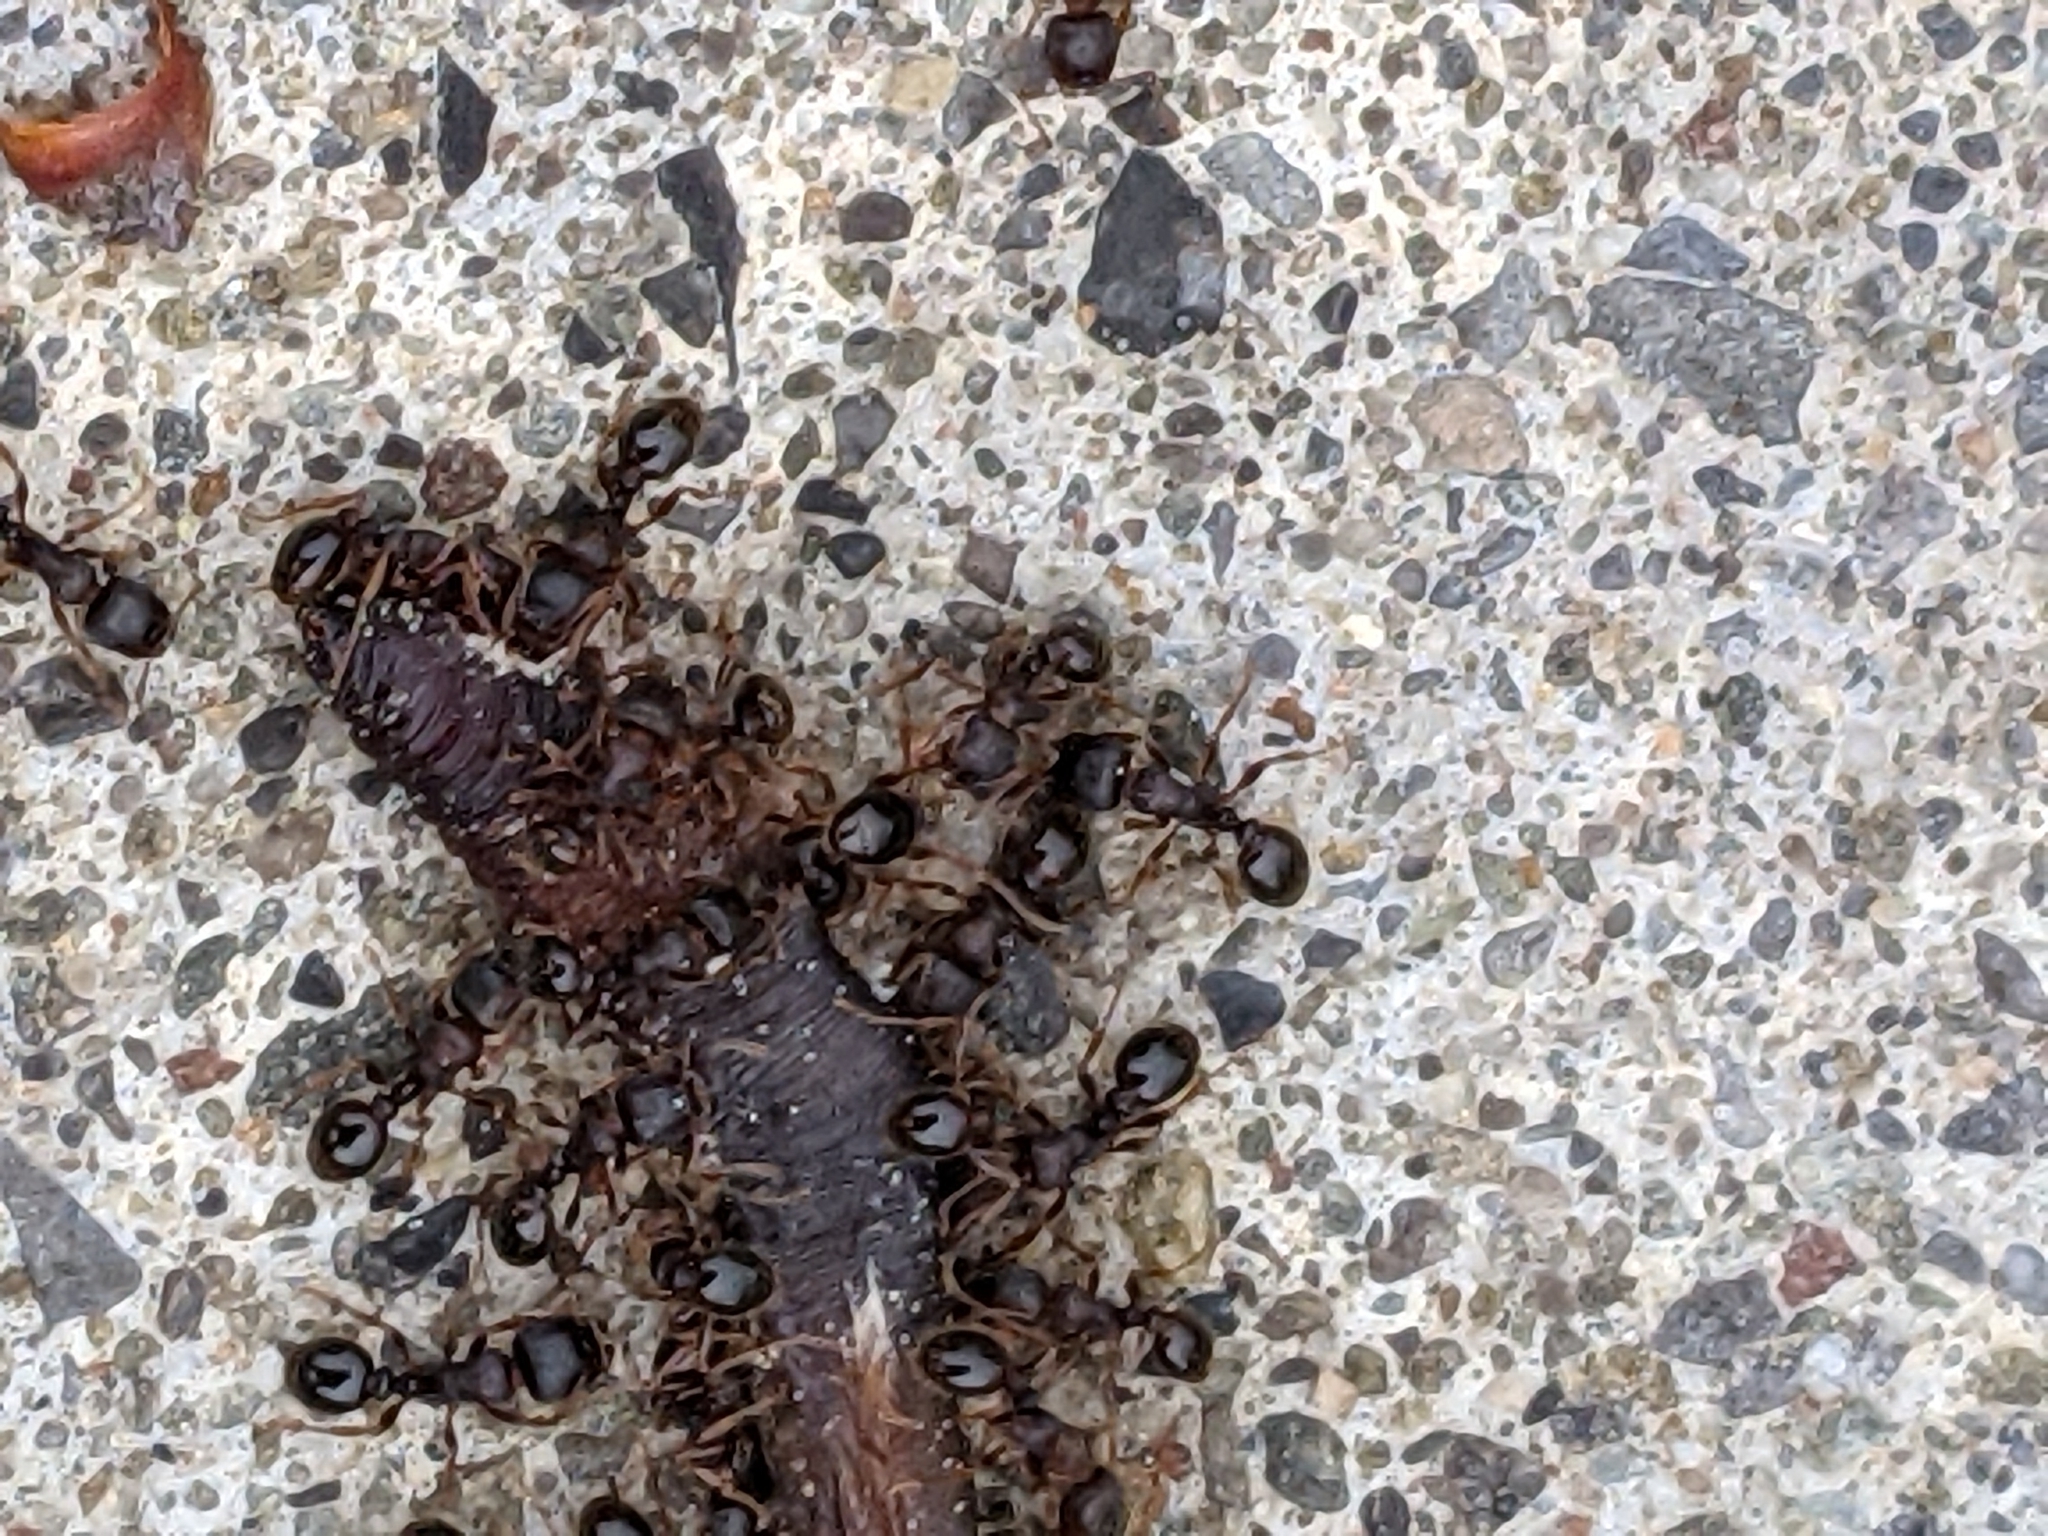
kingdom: Animalia
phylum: Arthropoda
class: Insecta
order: Hymenoptera
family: Formicidae
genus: Tetramorium
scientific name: Tetramorium immigrans
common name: Pavement ant
